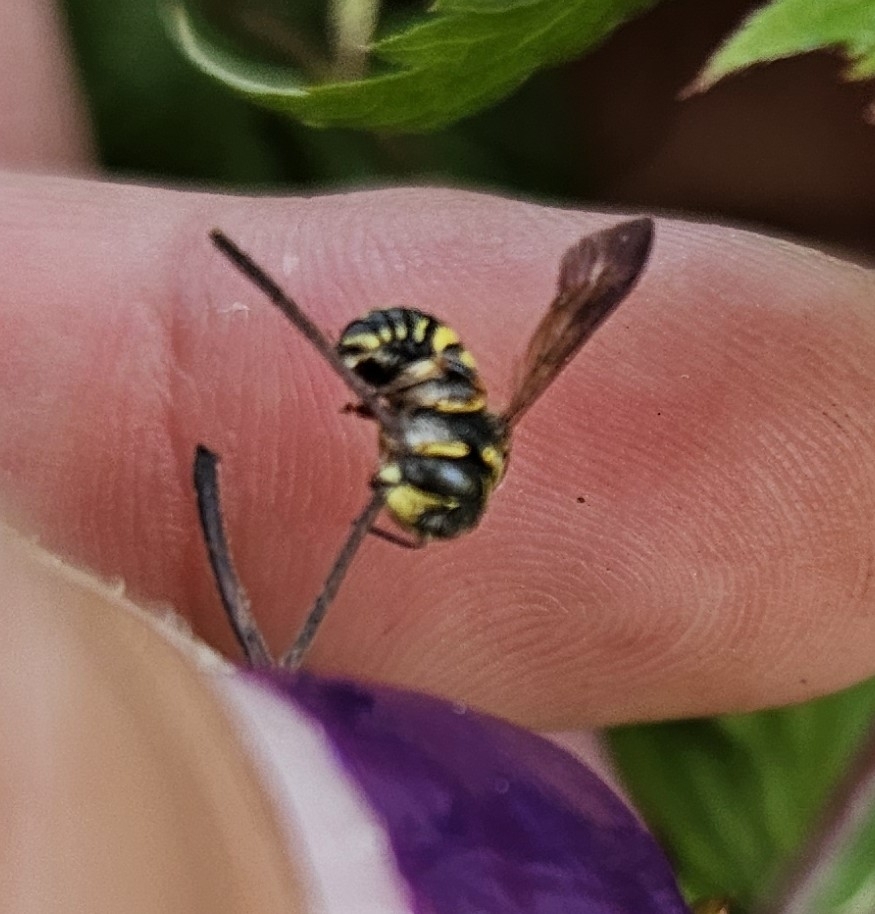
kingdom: Animalia
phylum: Arthropoda
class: Insecta
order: Hymenoptera
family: Megachilidae
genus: Anthidiellum
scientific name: Anthidiellum notatum
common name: Northern rotund-resin bee
